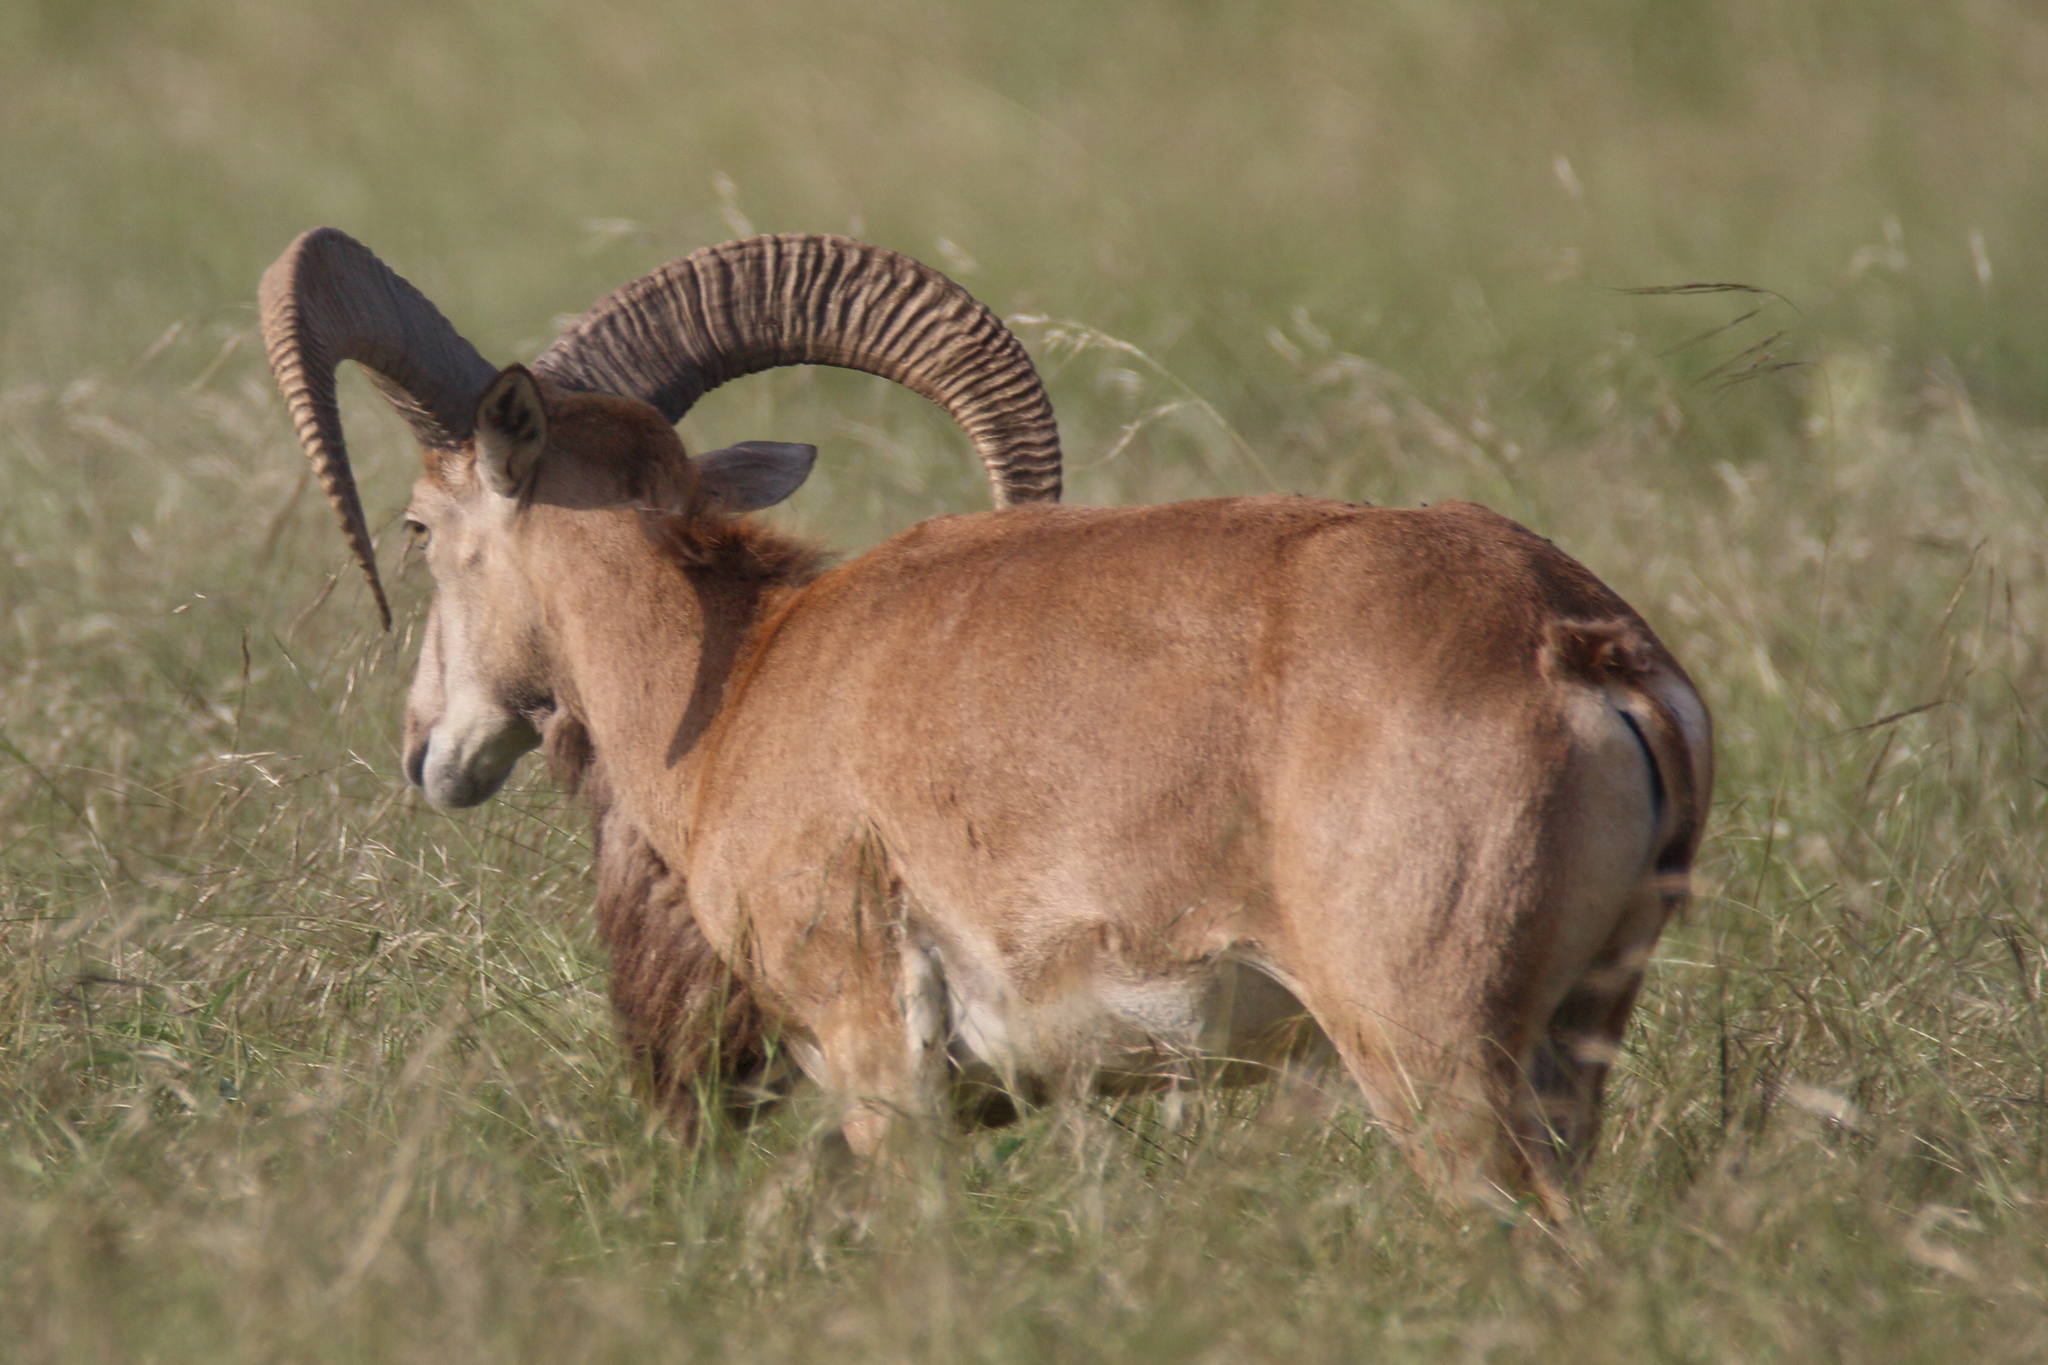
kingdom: Animalia
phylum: Chordata
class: Mammalia
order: Artiodactyla
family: Bovidae
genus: Ammotragus
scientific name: Ammotragus lervia
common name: Barbary sheep
